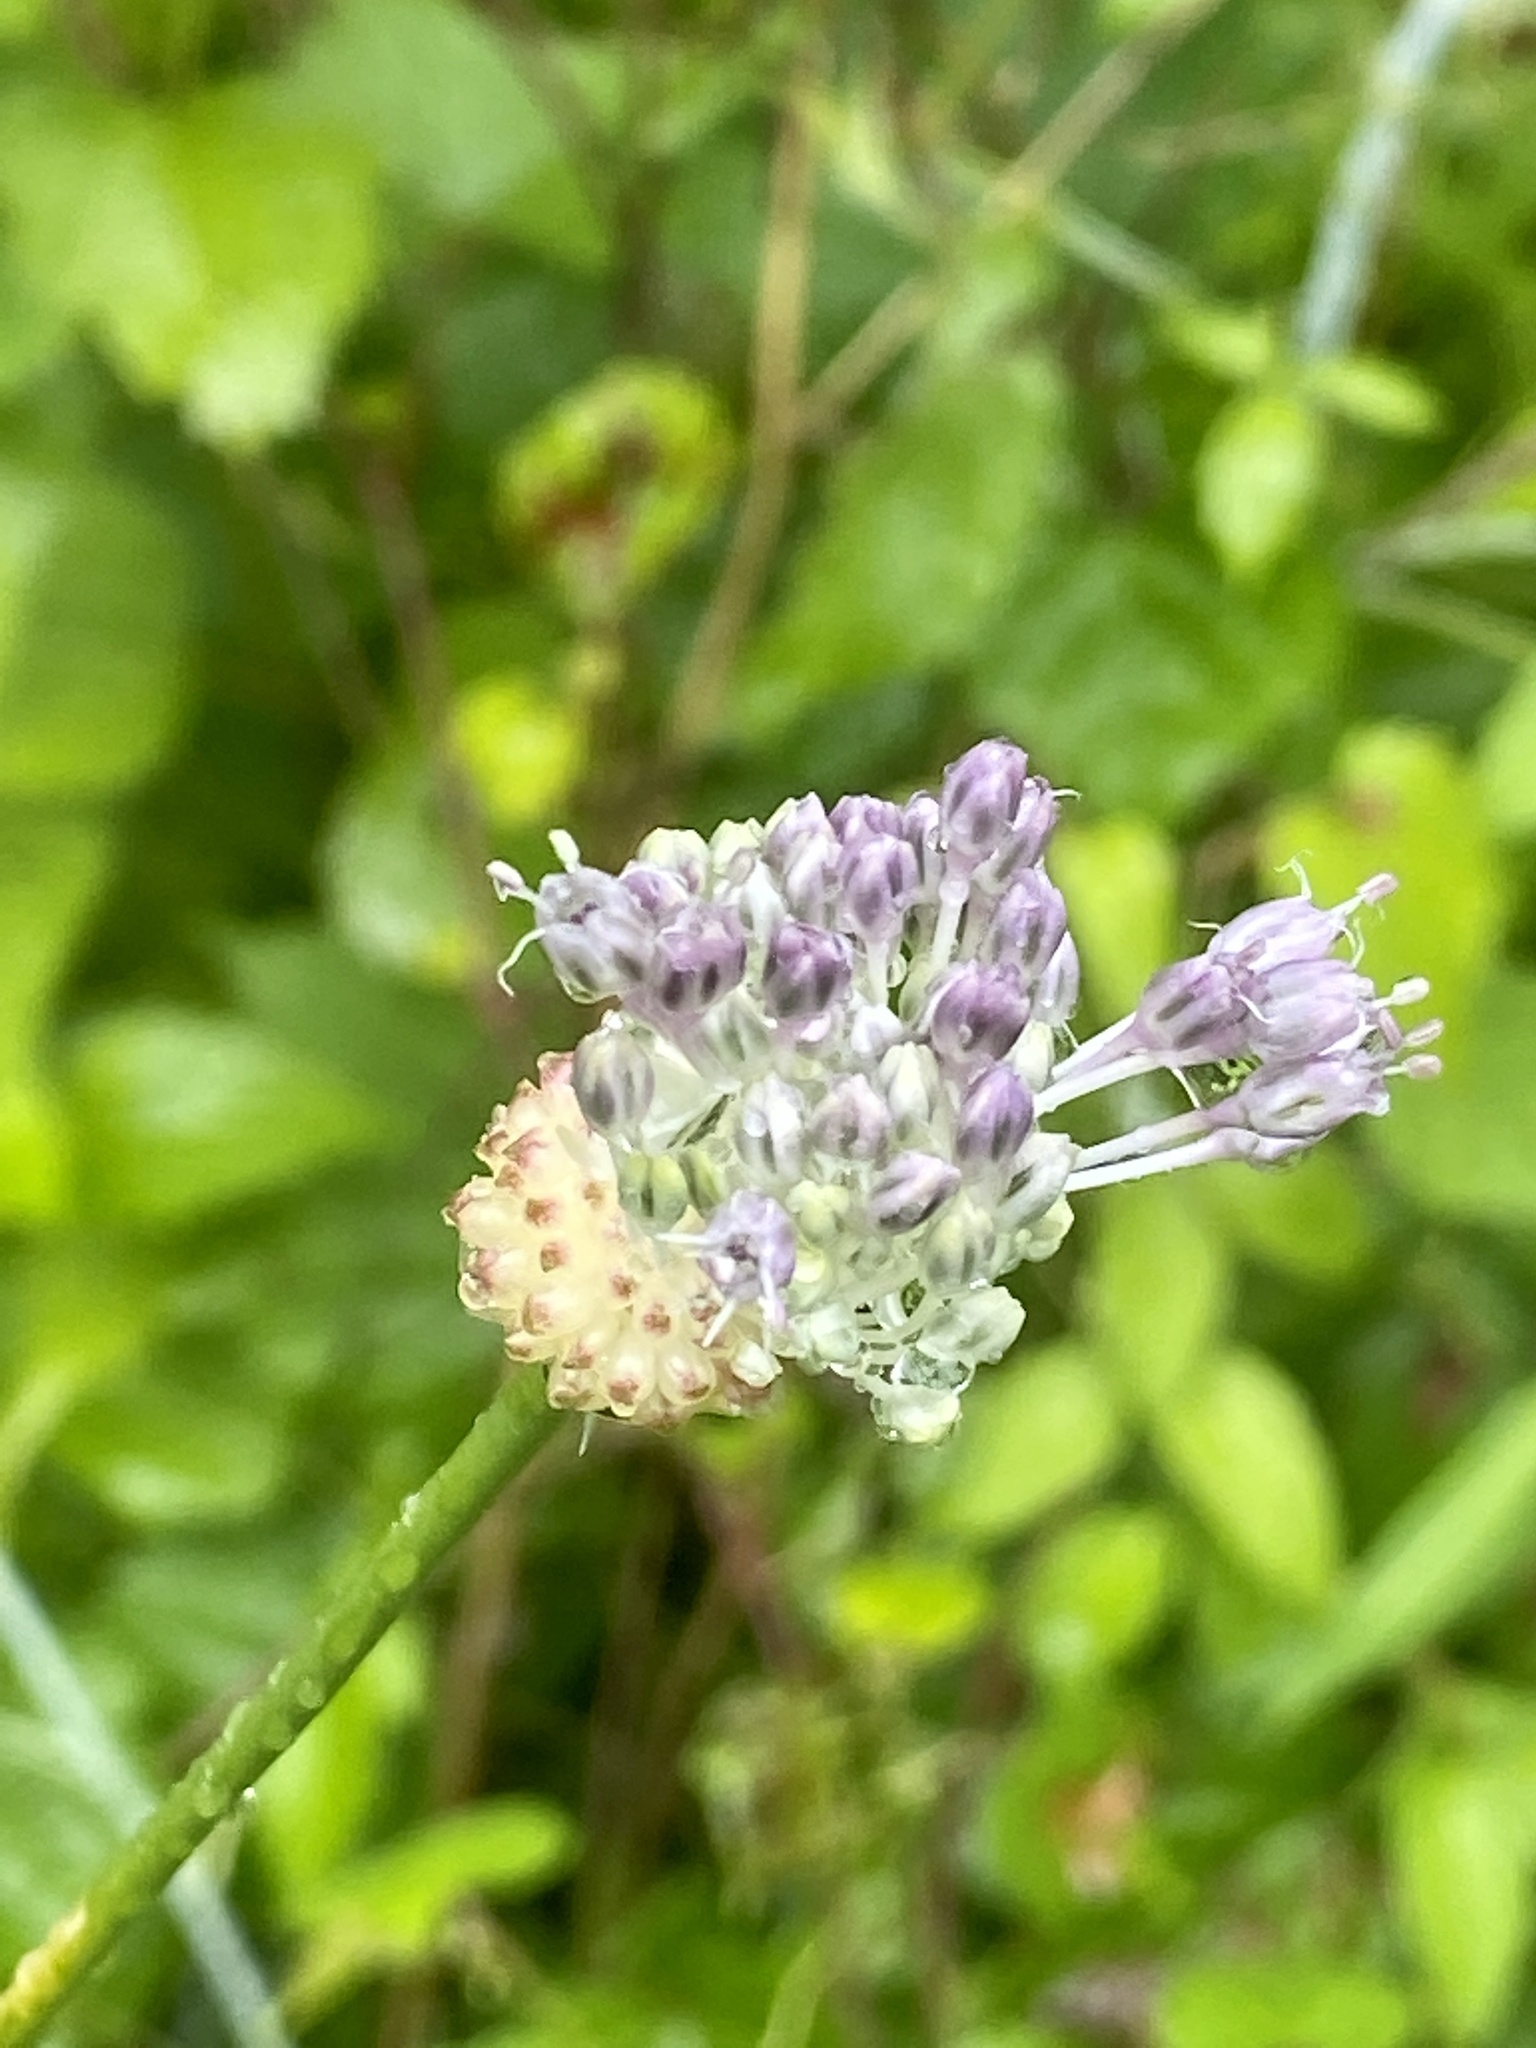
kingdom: Plantae
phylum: Tracheophyta
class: Liliopsida
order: Asparagales
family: Amaryllidaceae
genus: Allium
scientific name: Allium vineale
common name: Crow garlic
